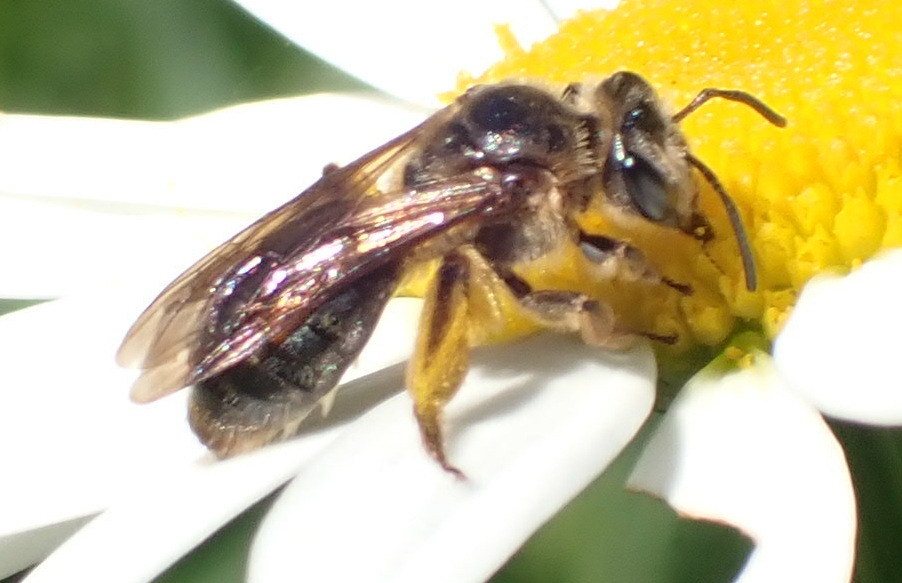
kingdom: Animalia
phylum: Arthropoda
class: Insecta
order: Hymenoptera
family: Andrenidae
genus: Andrena
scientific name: Andrena crataegi
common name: Hawthorn mining bee
